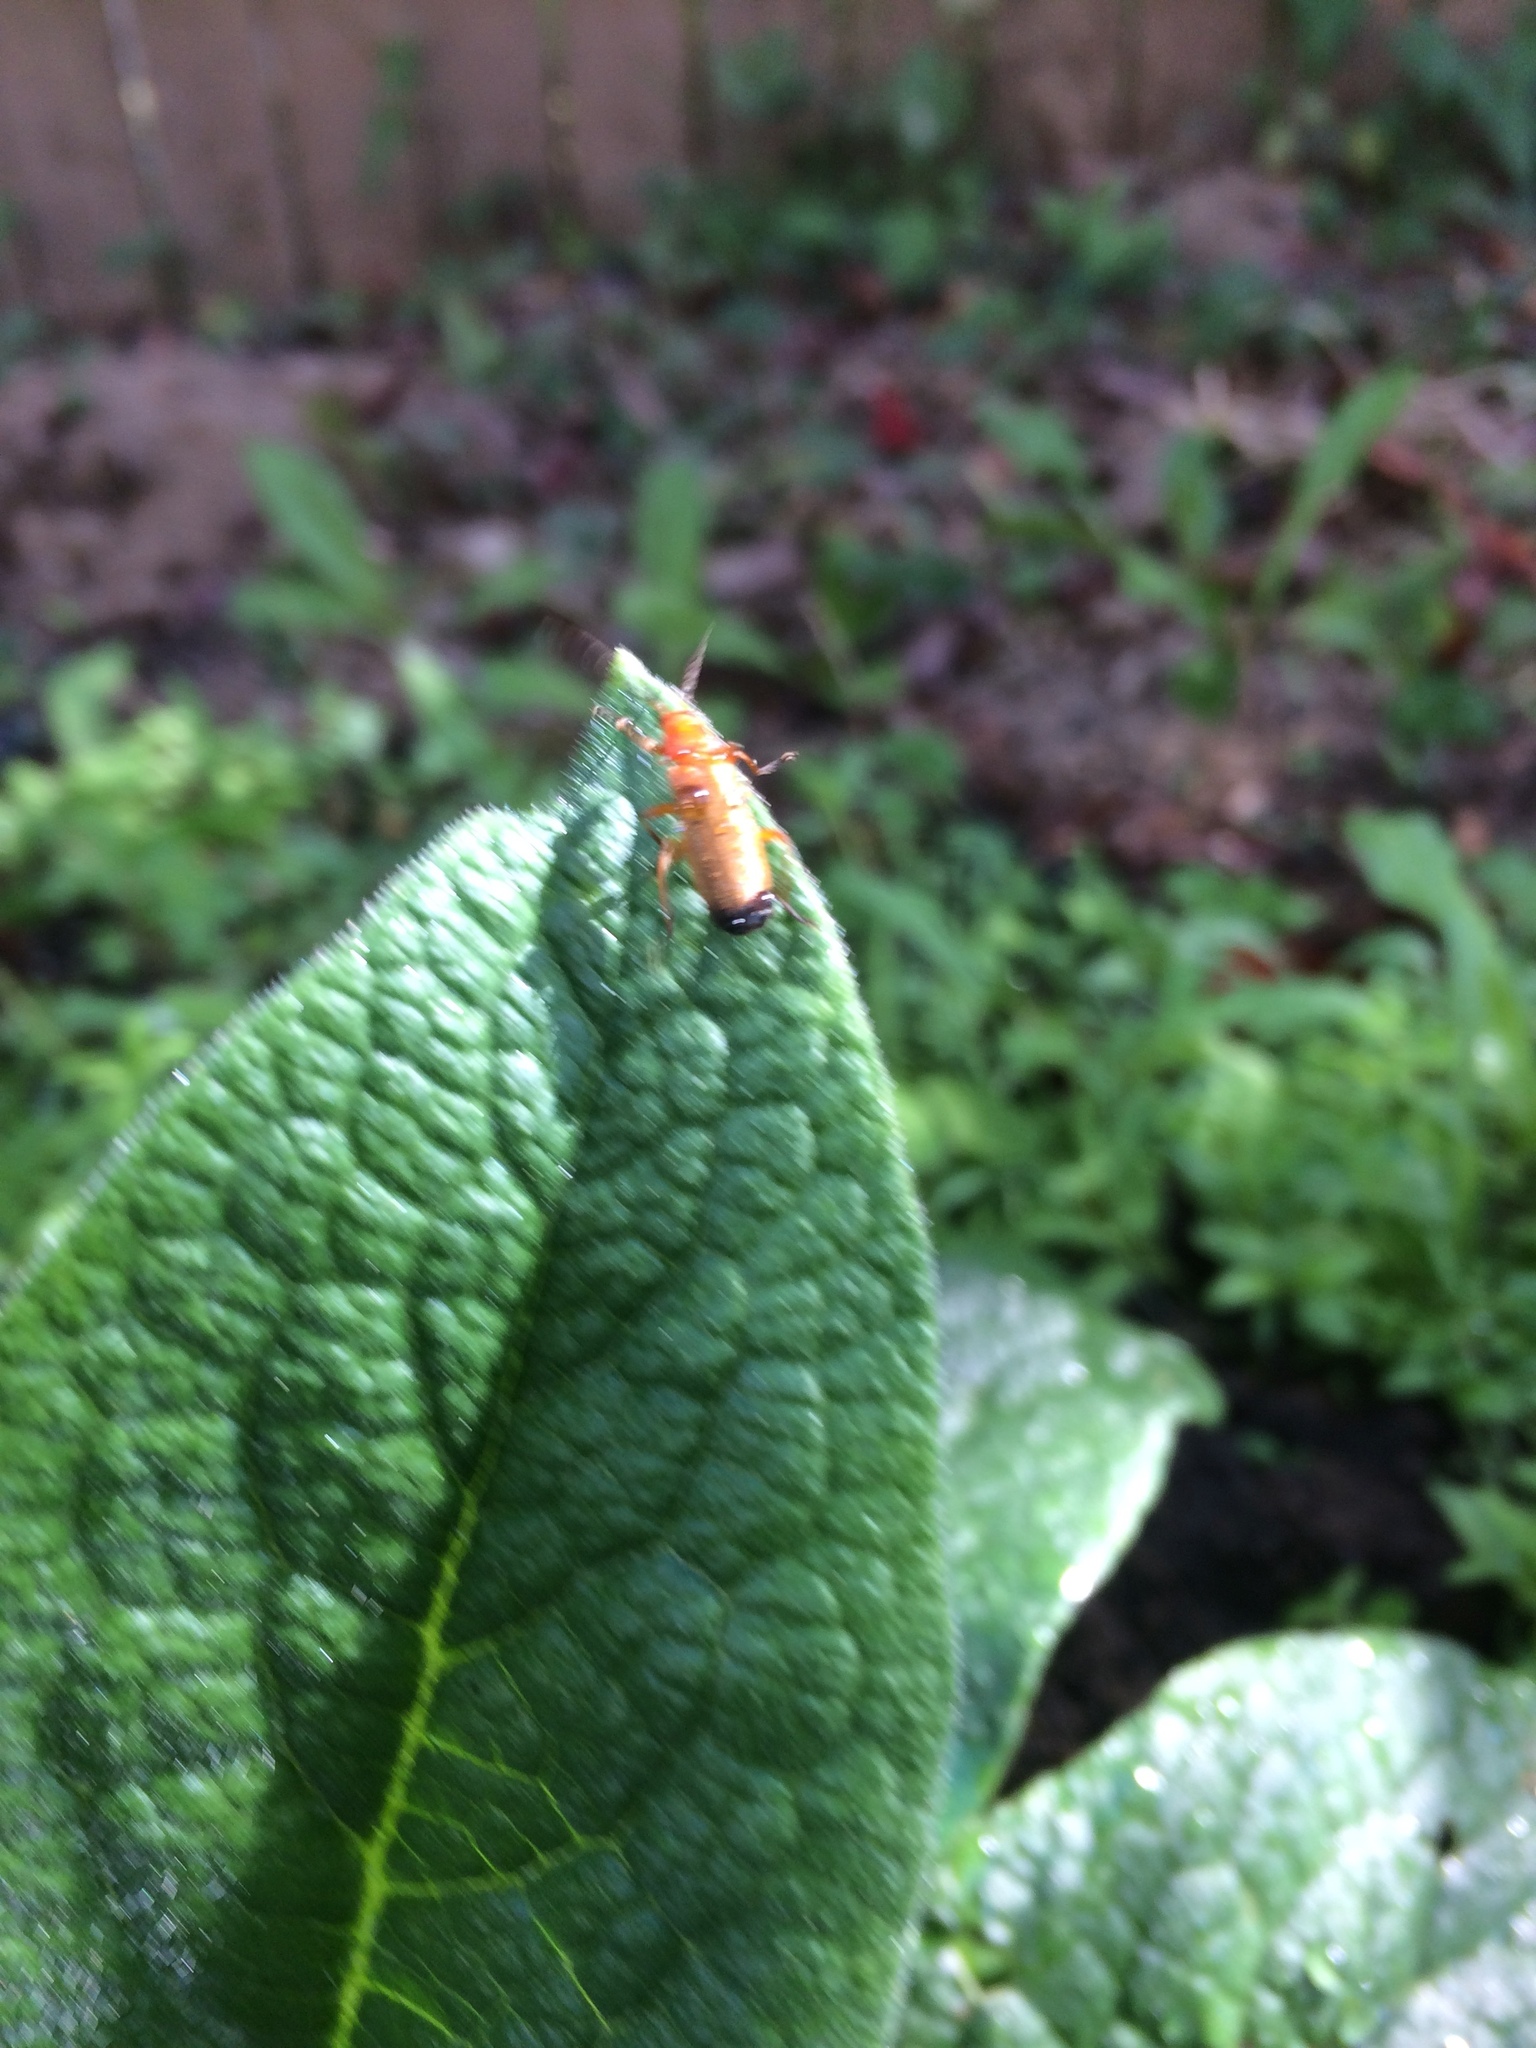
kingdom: Animalia
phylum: Arthropoda
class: Insecta
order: Coleoptera
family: Cantharidae
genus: Rhagonycha
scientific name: Rhagonycha fulva
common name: Common red soldier beetle
